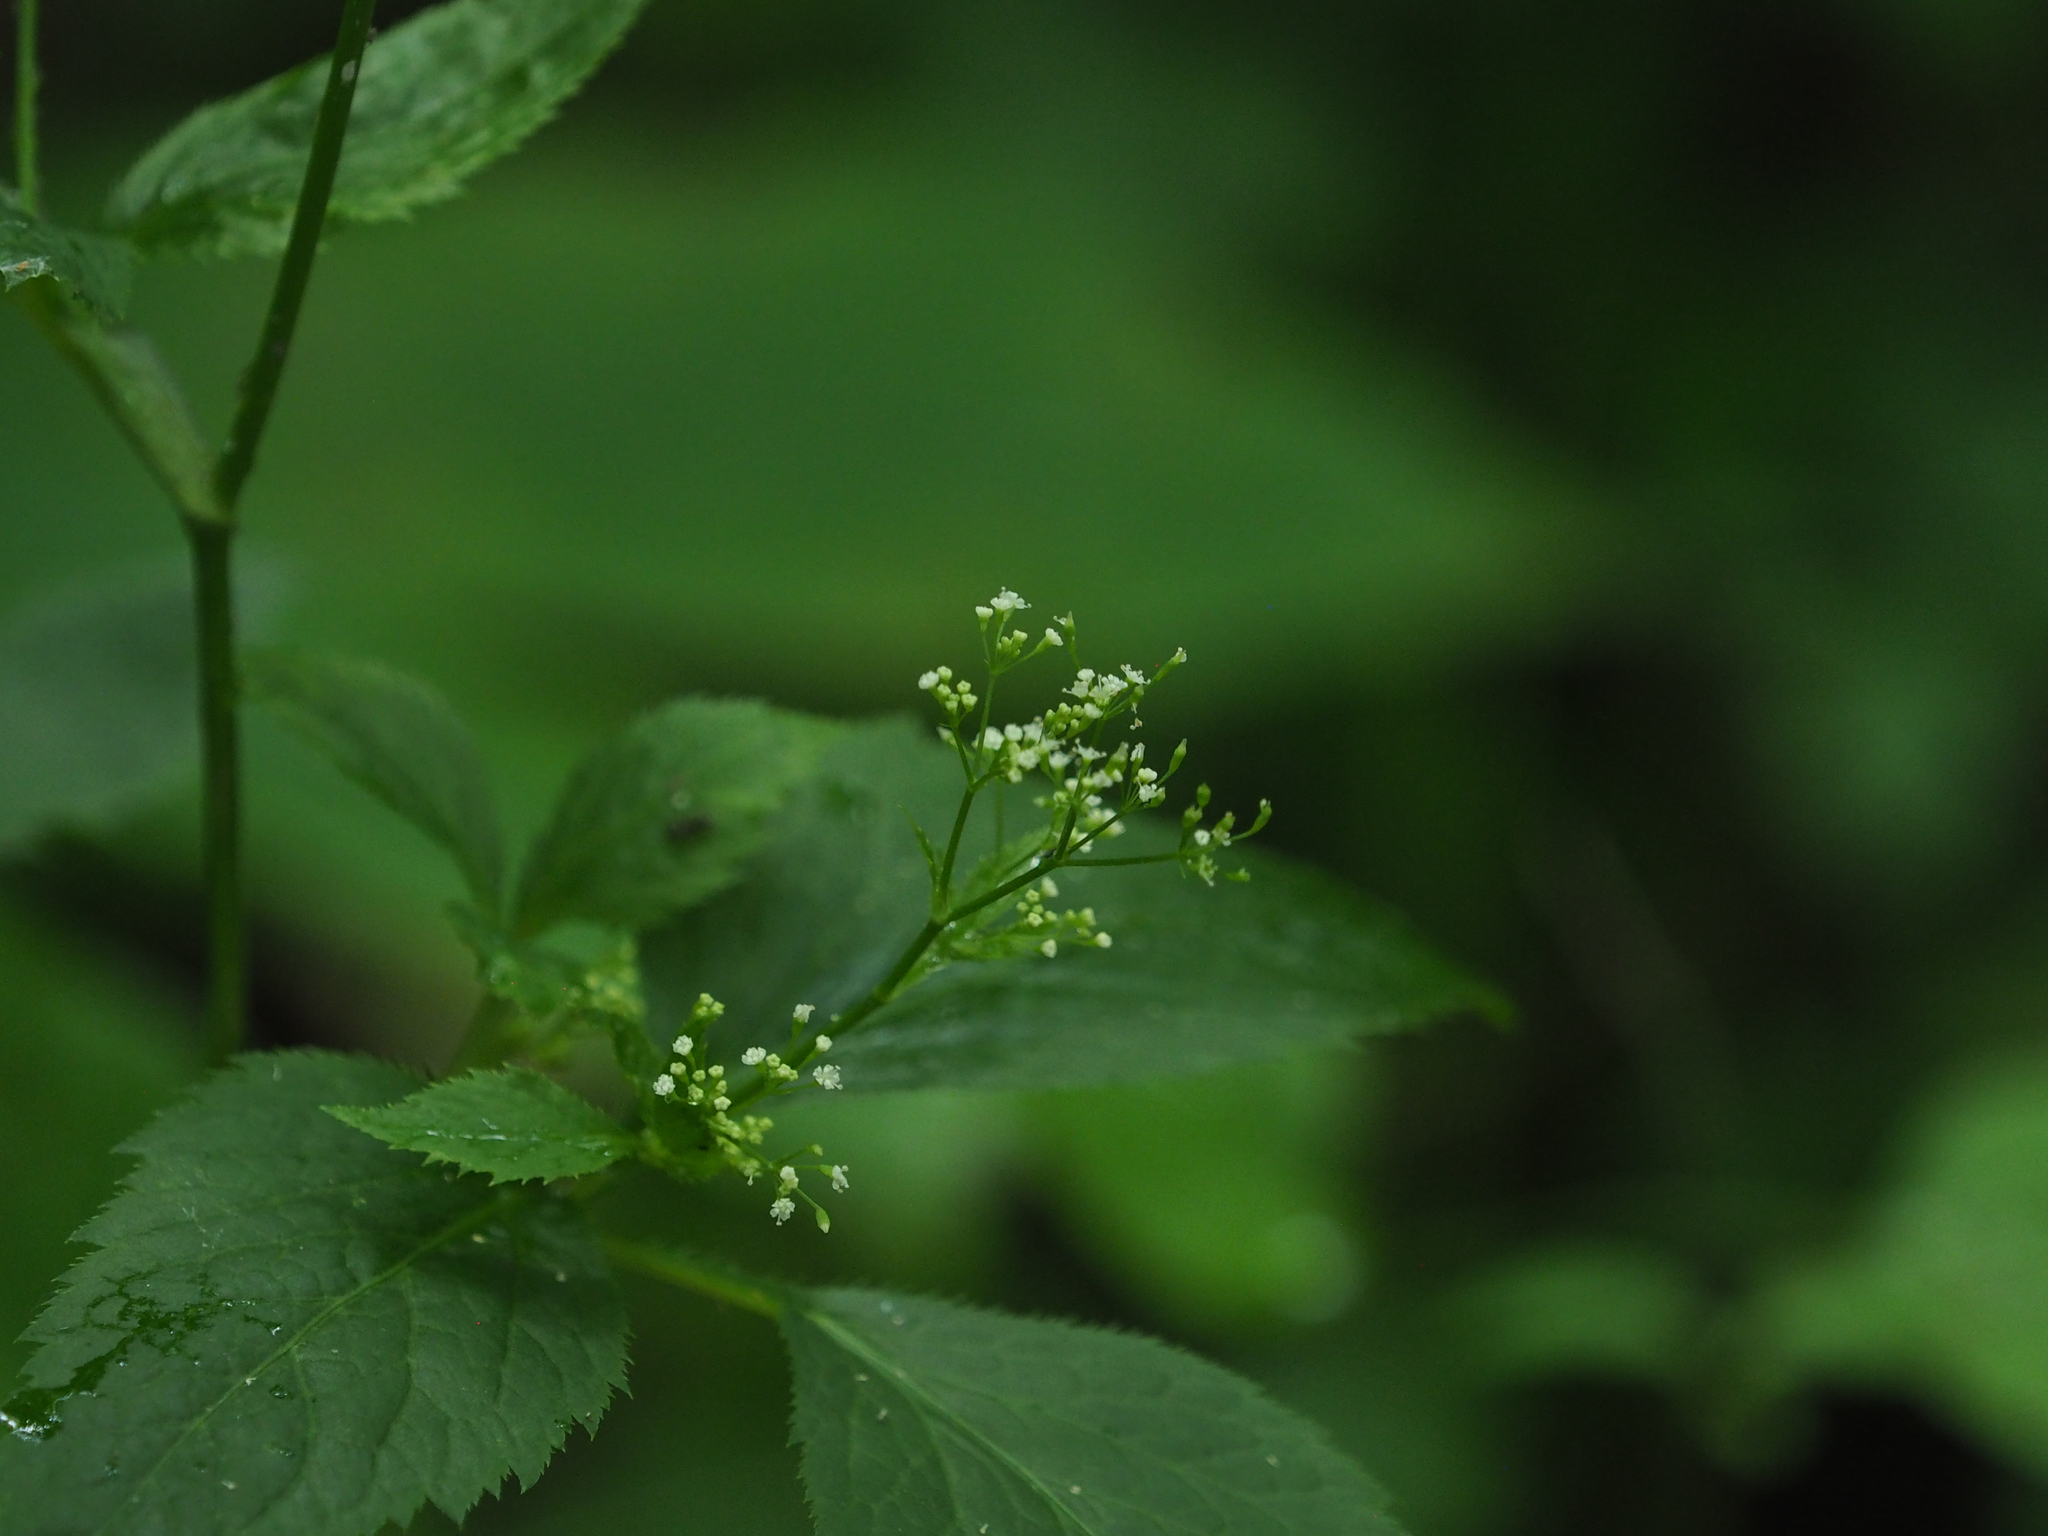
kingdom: Plantae
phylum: Tracheophyta
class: Magnoliopsida
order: Apiales
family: Apiaceae
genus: Cryptotaenia
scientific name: Cryptotaenia canadensis
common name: Honewort
